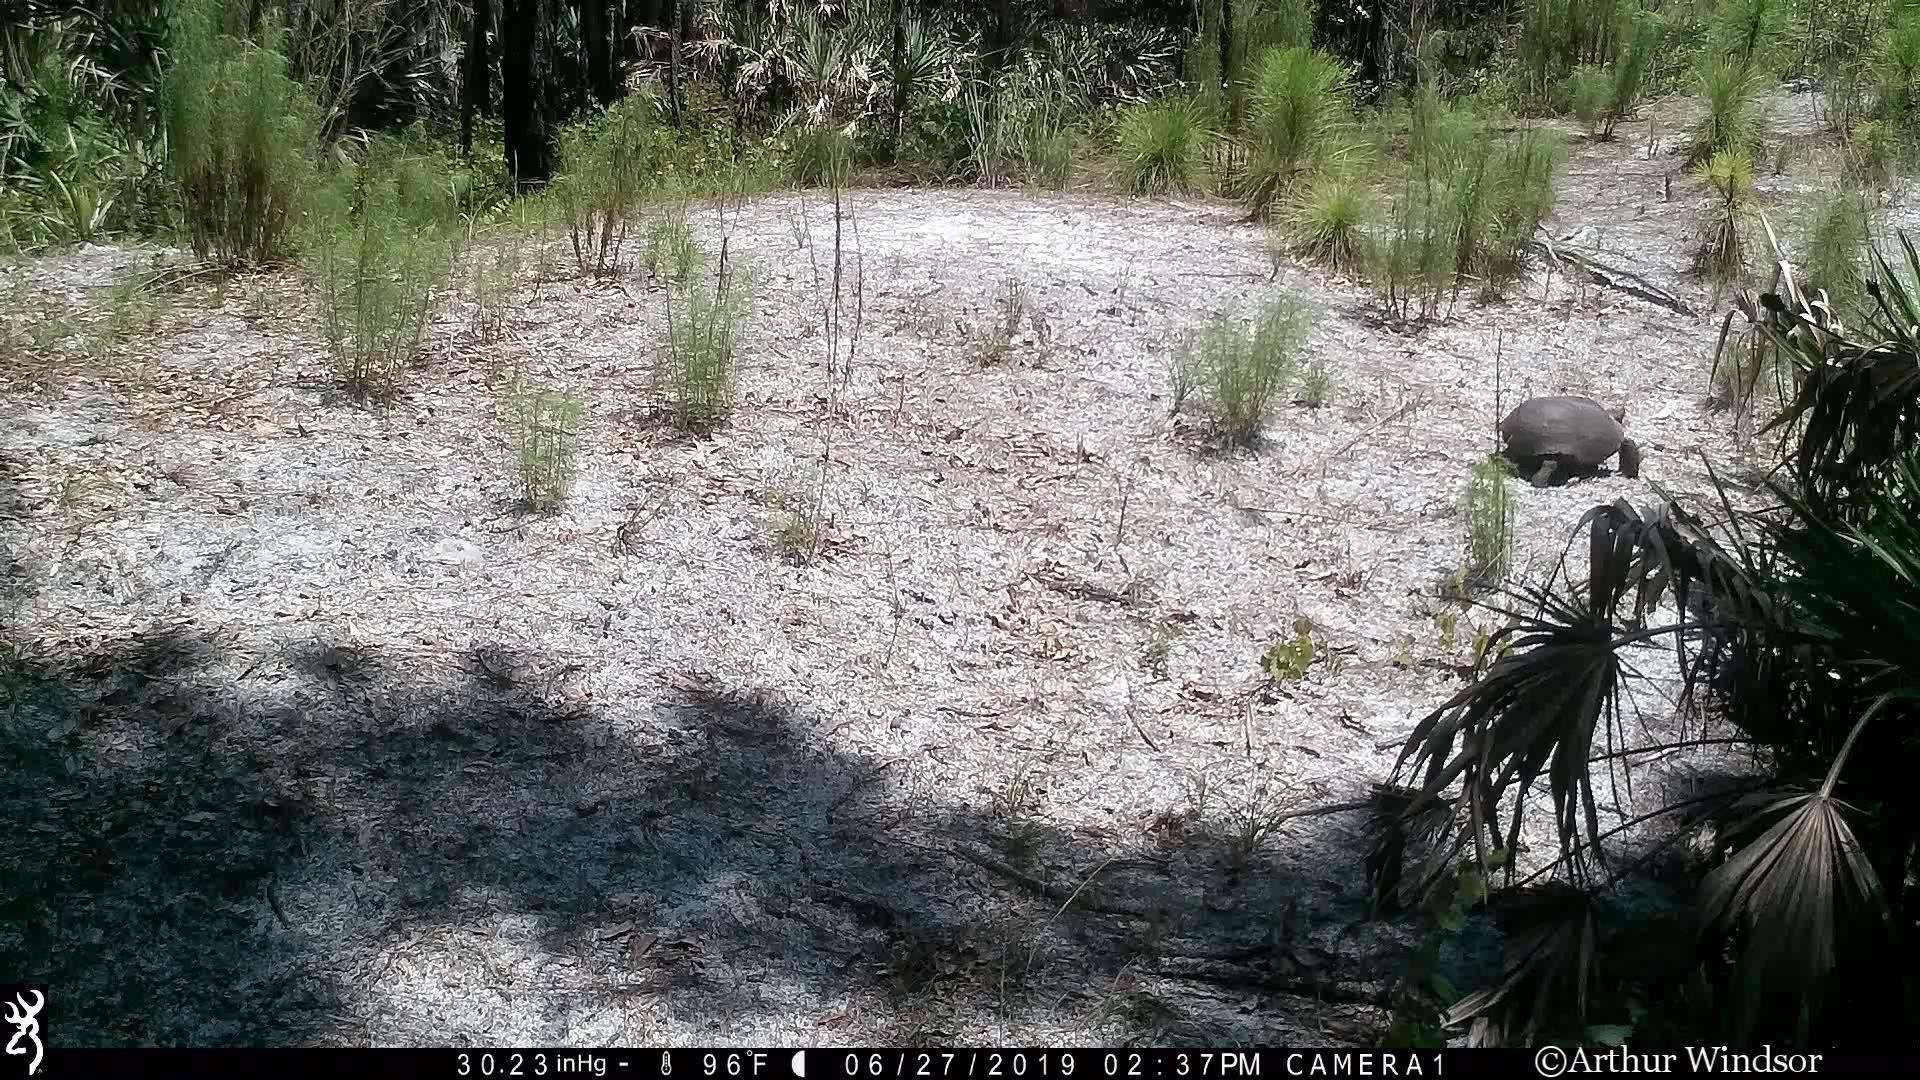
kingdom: Animalia
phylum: Chordata
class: Testudines
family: Testudinidae
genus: Gopherus
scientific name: Gopherus polyphemus
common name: Florida gopher tortoise
